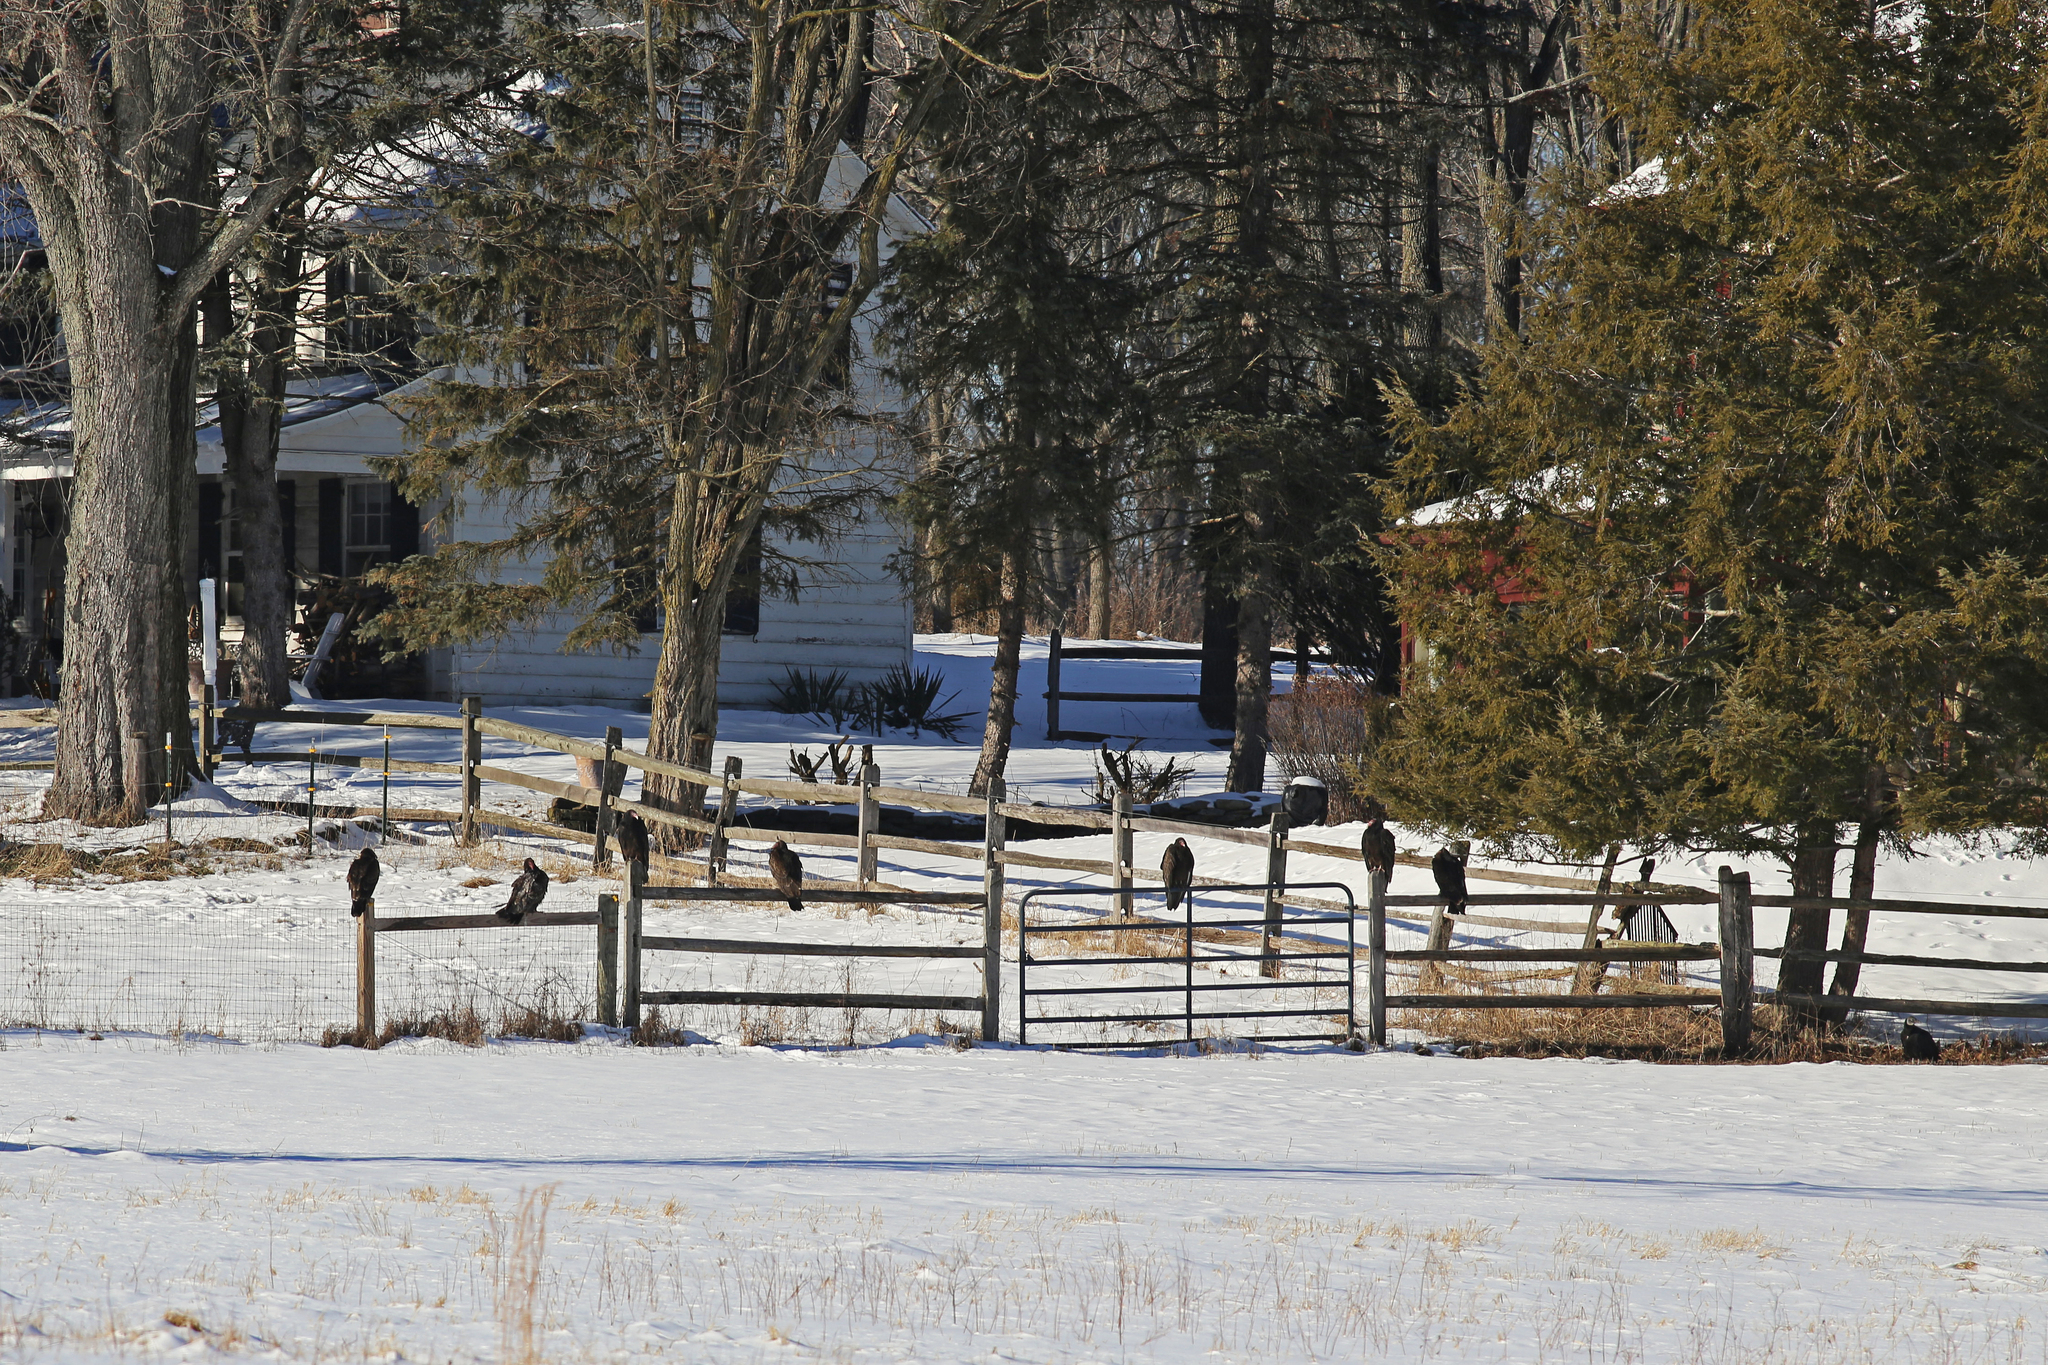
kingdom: Animalia
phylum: Chordata
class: Aves
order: Accipitriformes
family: Cathartidae
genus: Cathartes
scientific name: Cathartes aura
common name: Turkey vulture
